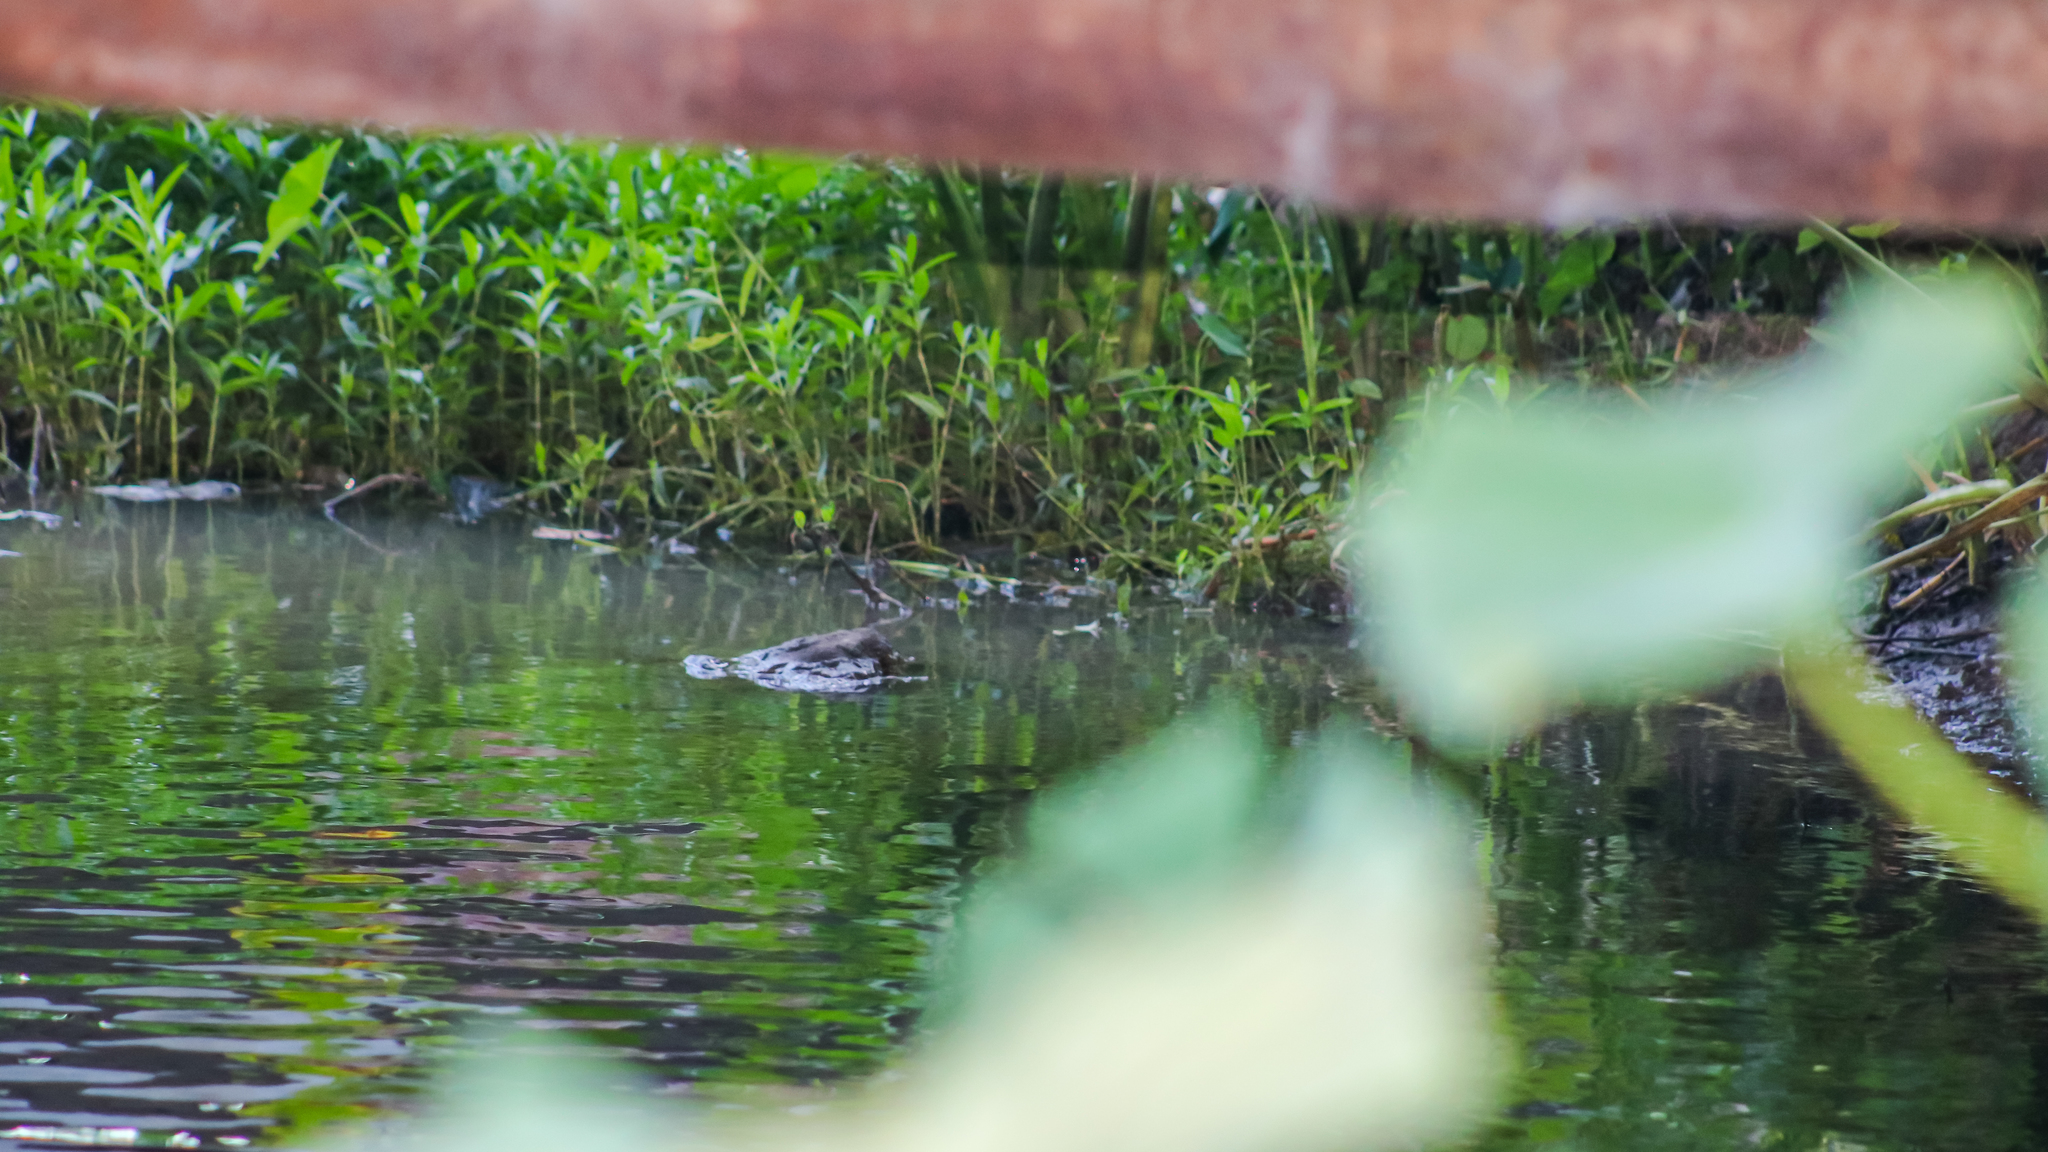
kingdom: Animalia
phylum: Chordata
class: Crocodylia
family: Alligatoridae
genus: Alligator
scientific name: Alligator mississippiensis
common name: American alligator
